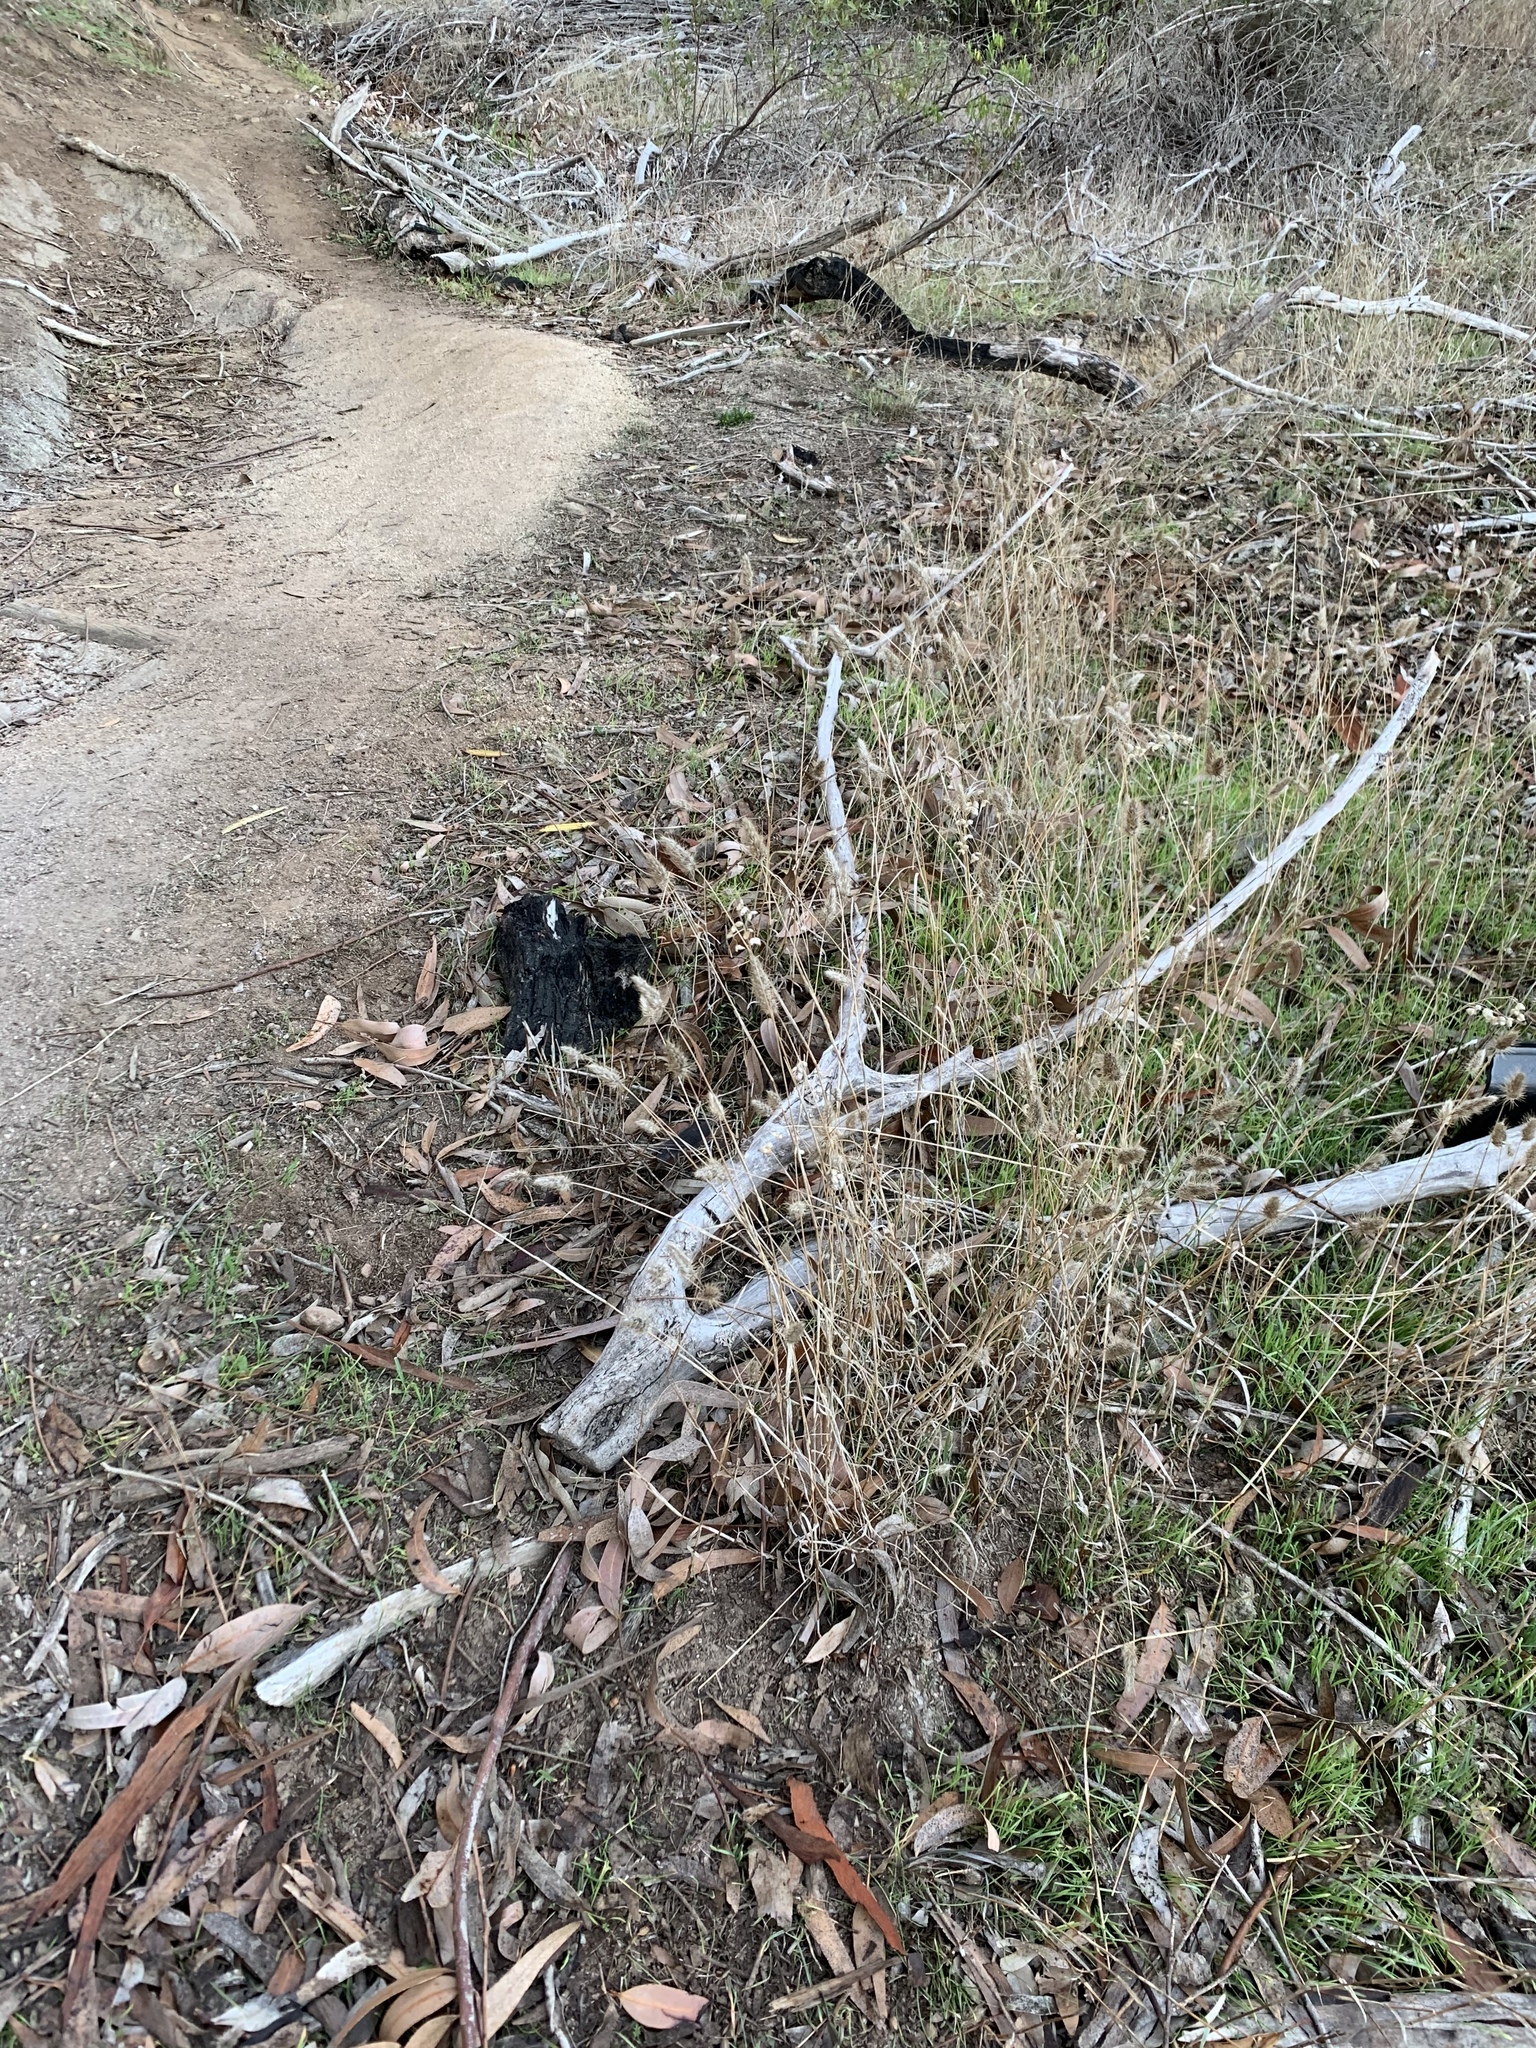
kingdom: Plantae
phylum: Tracheophyta
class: Liliopsida
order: Poales
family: Poaceae
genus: Cynosurus
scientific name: Cynosurus echinatus
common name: Rough dog's-tail
